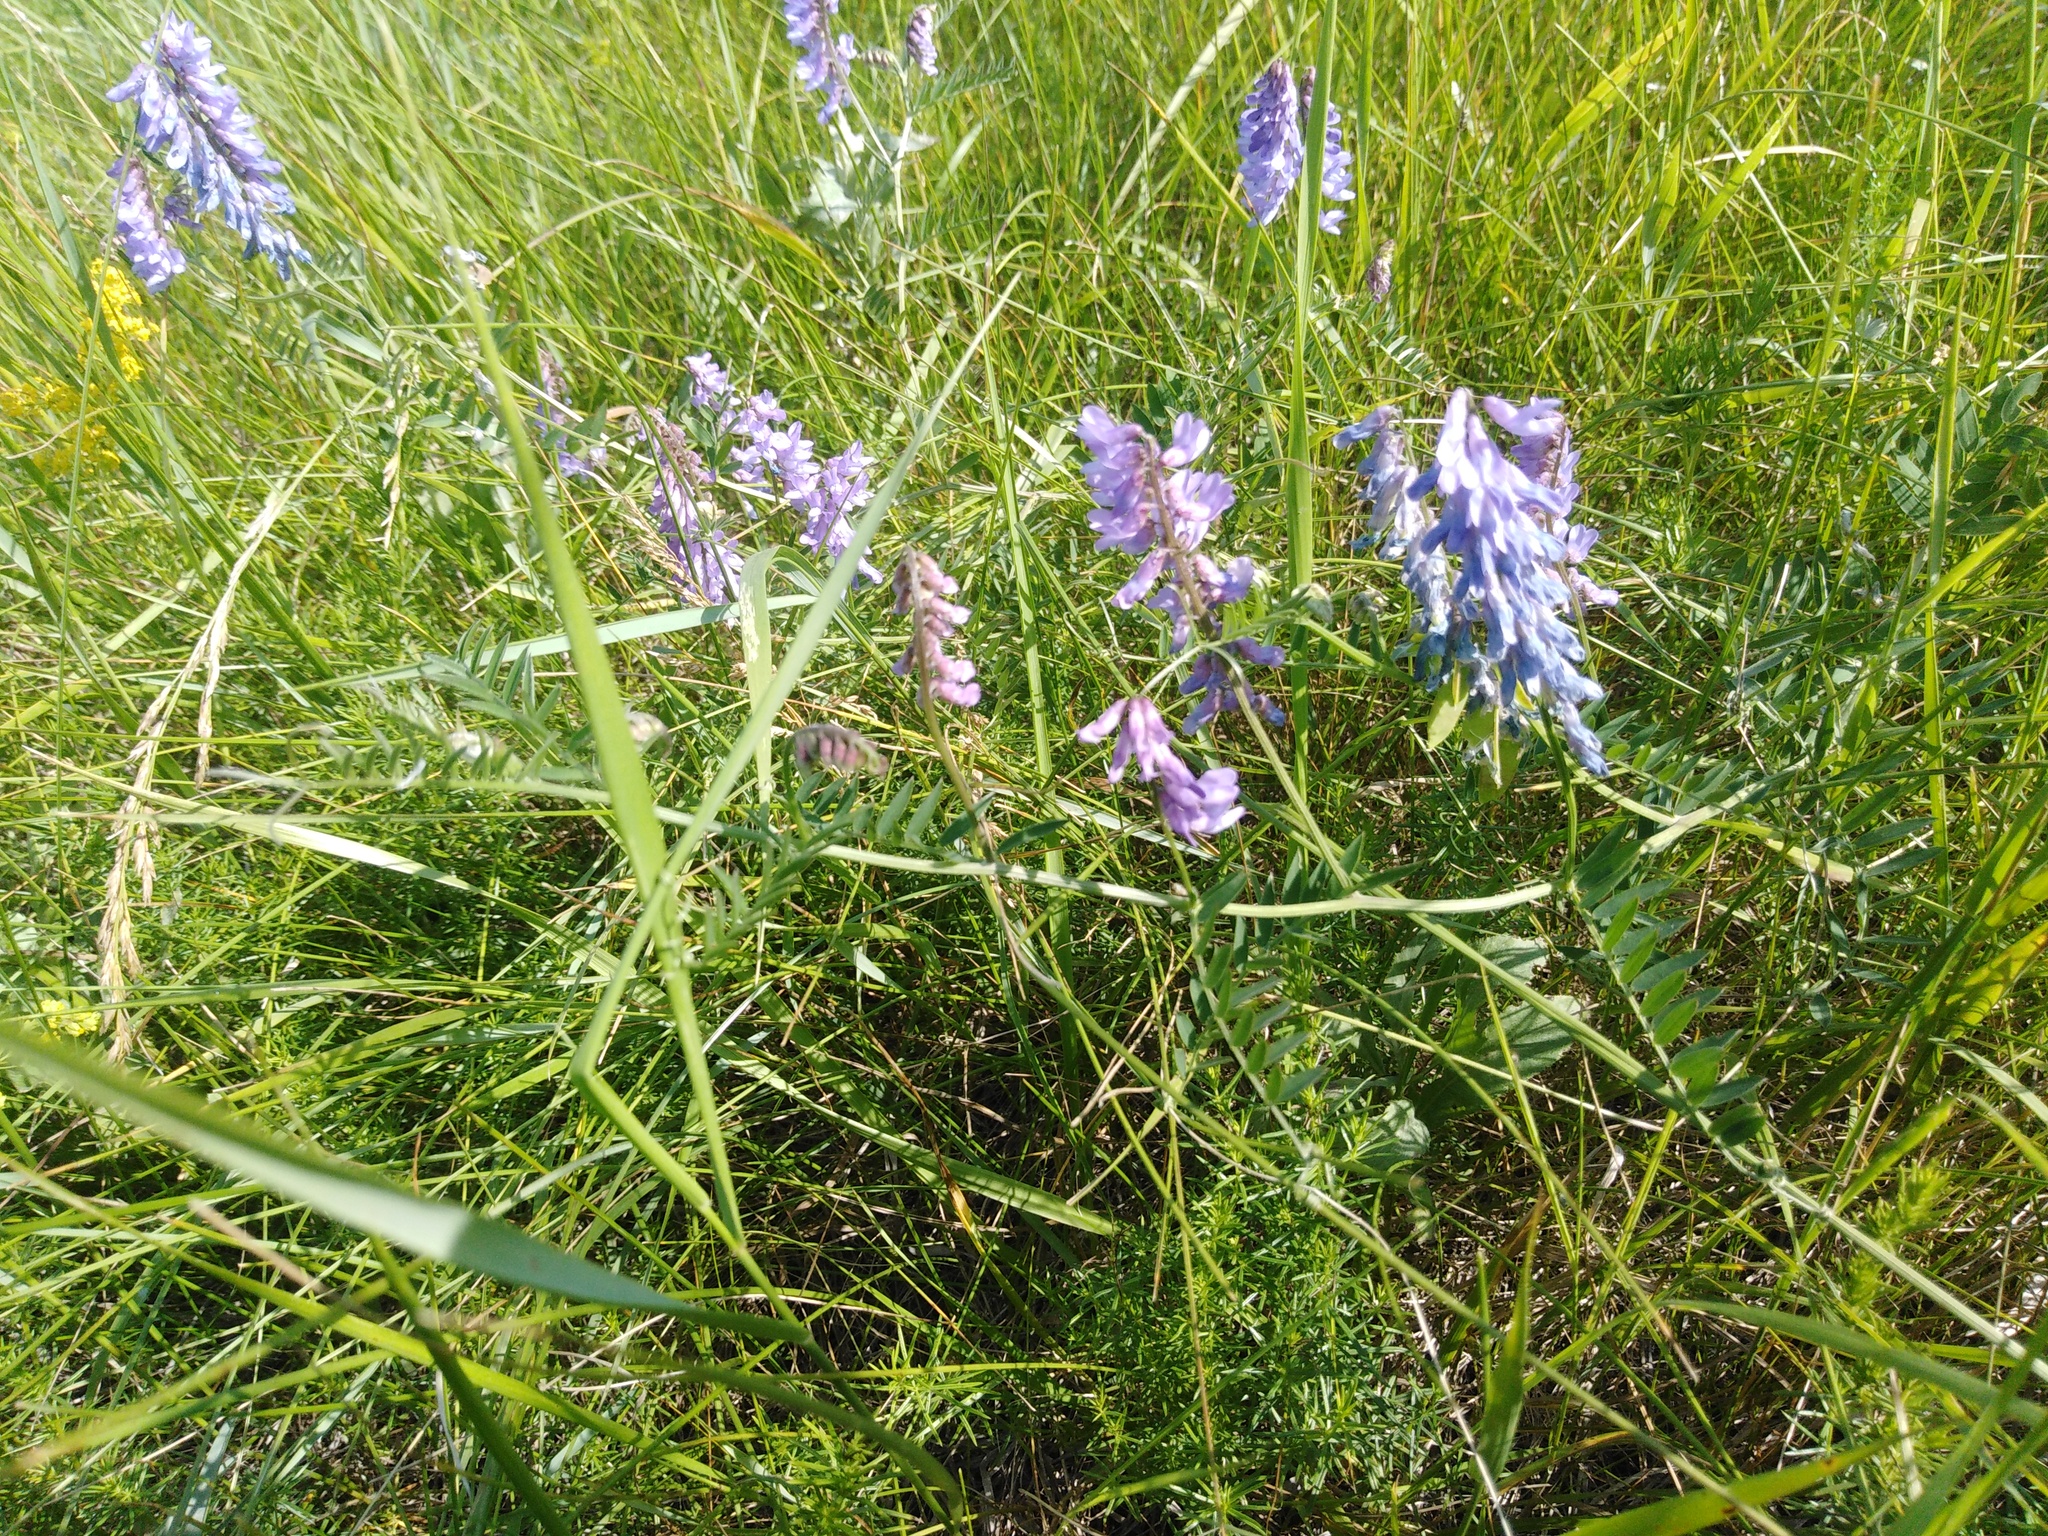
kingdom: Plantae
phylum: Tracheophyta
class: Magnoliopsida
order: Fabales
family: Fabaceae
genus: Vicia
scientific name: Vicia cracca
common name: Bird vetch
